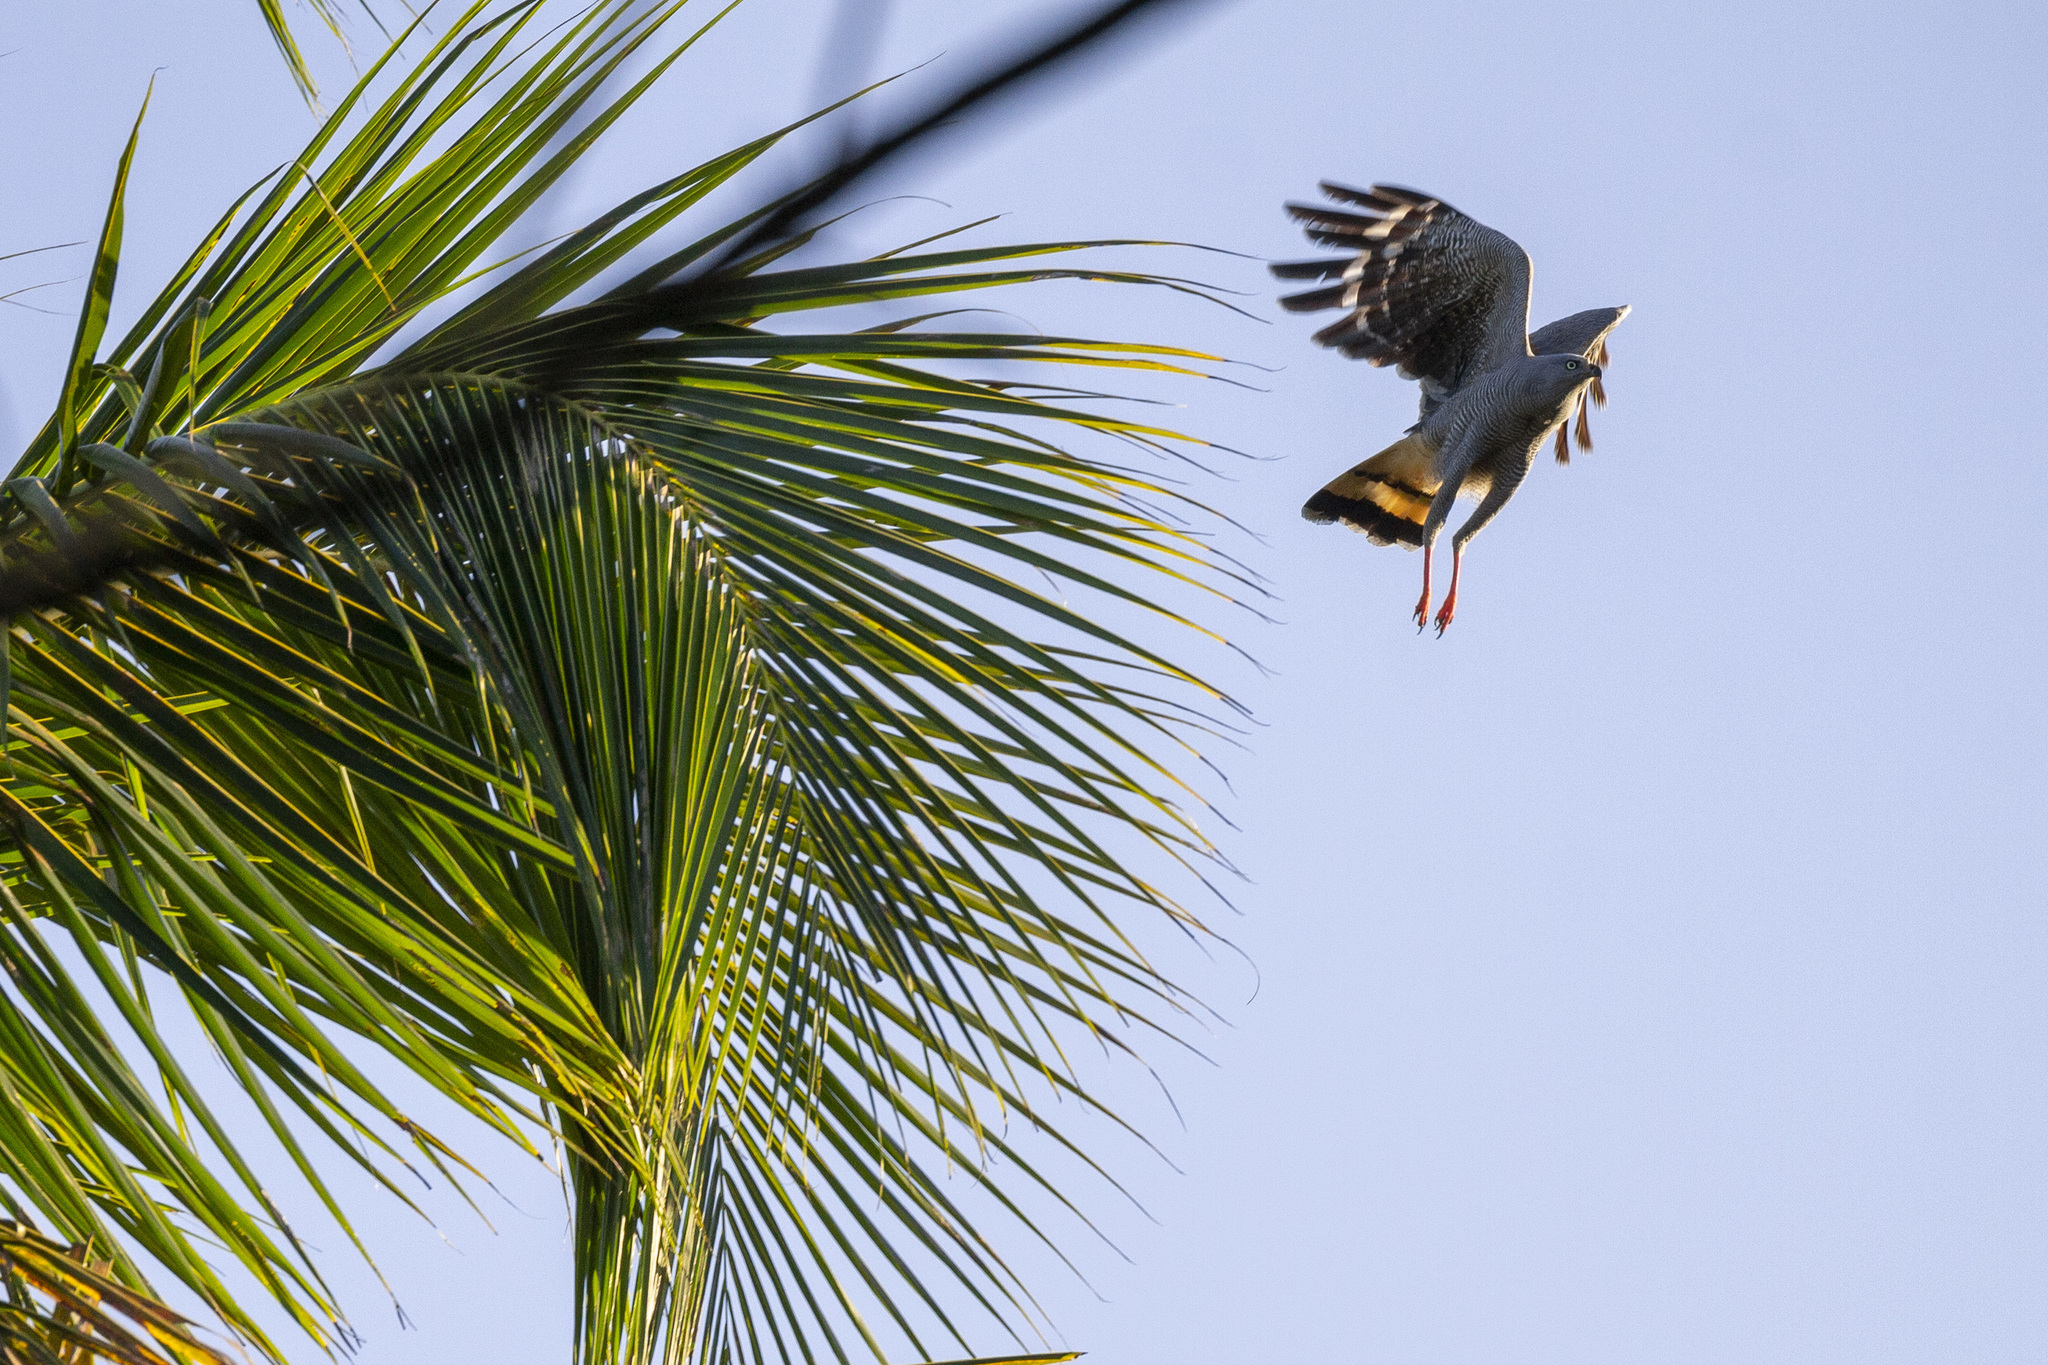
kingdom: Animalia
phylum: Chordata
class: Aves
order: Accipitriformes
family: Accipitridae
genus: Geranospiza
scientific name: Geranospiza caerulescens
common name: Crane hawk
